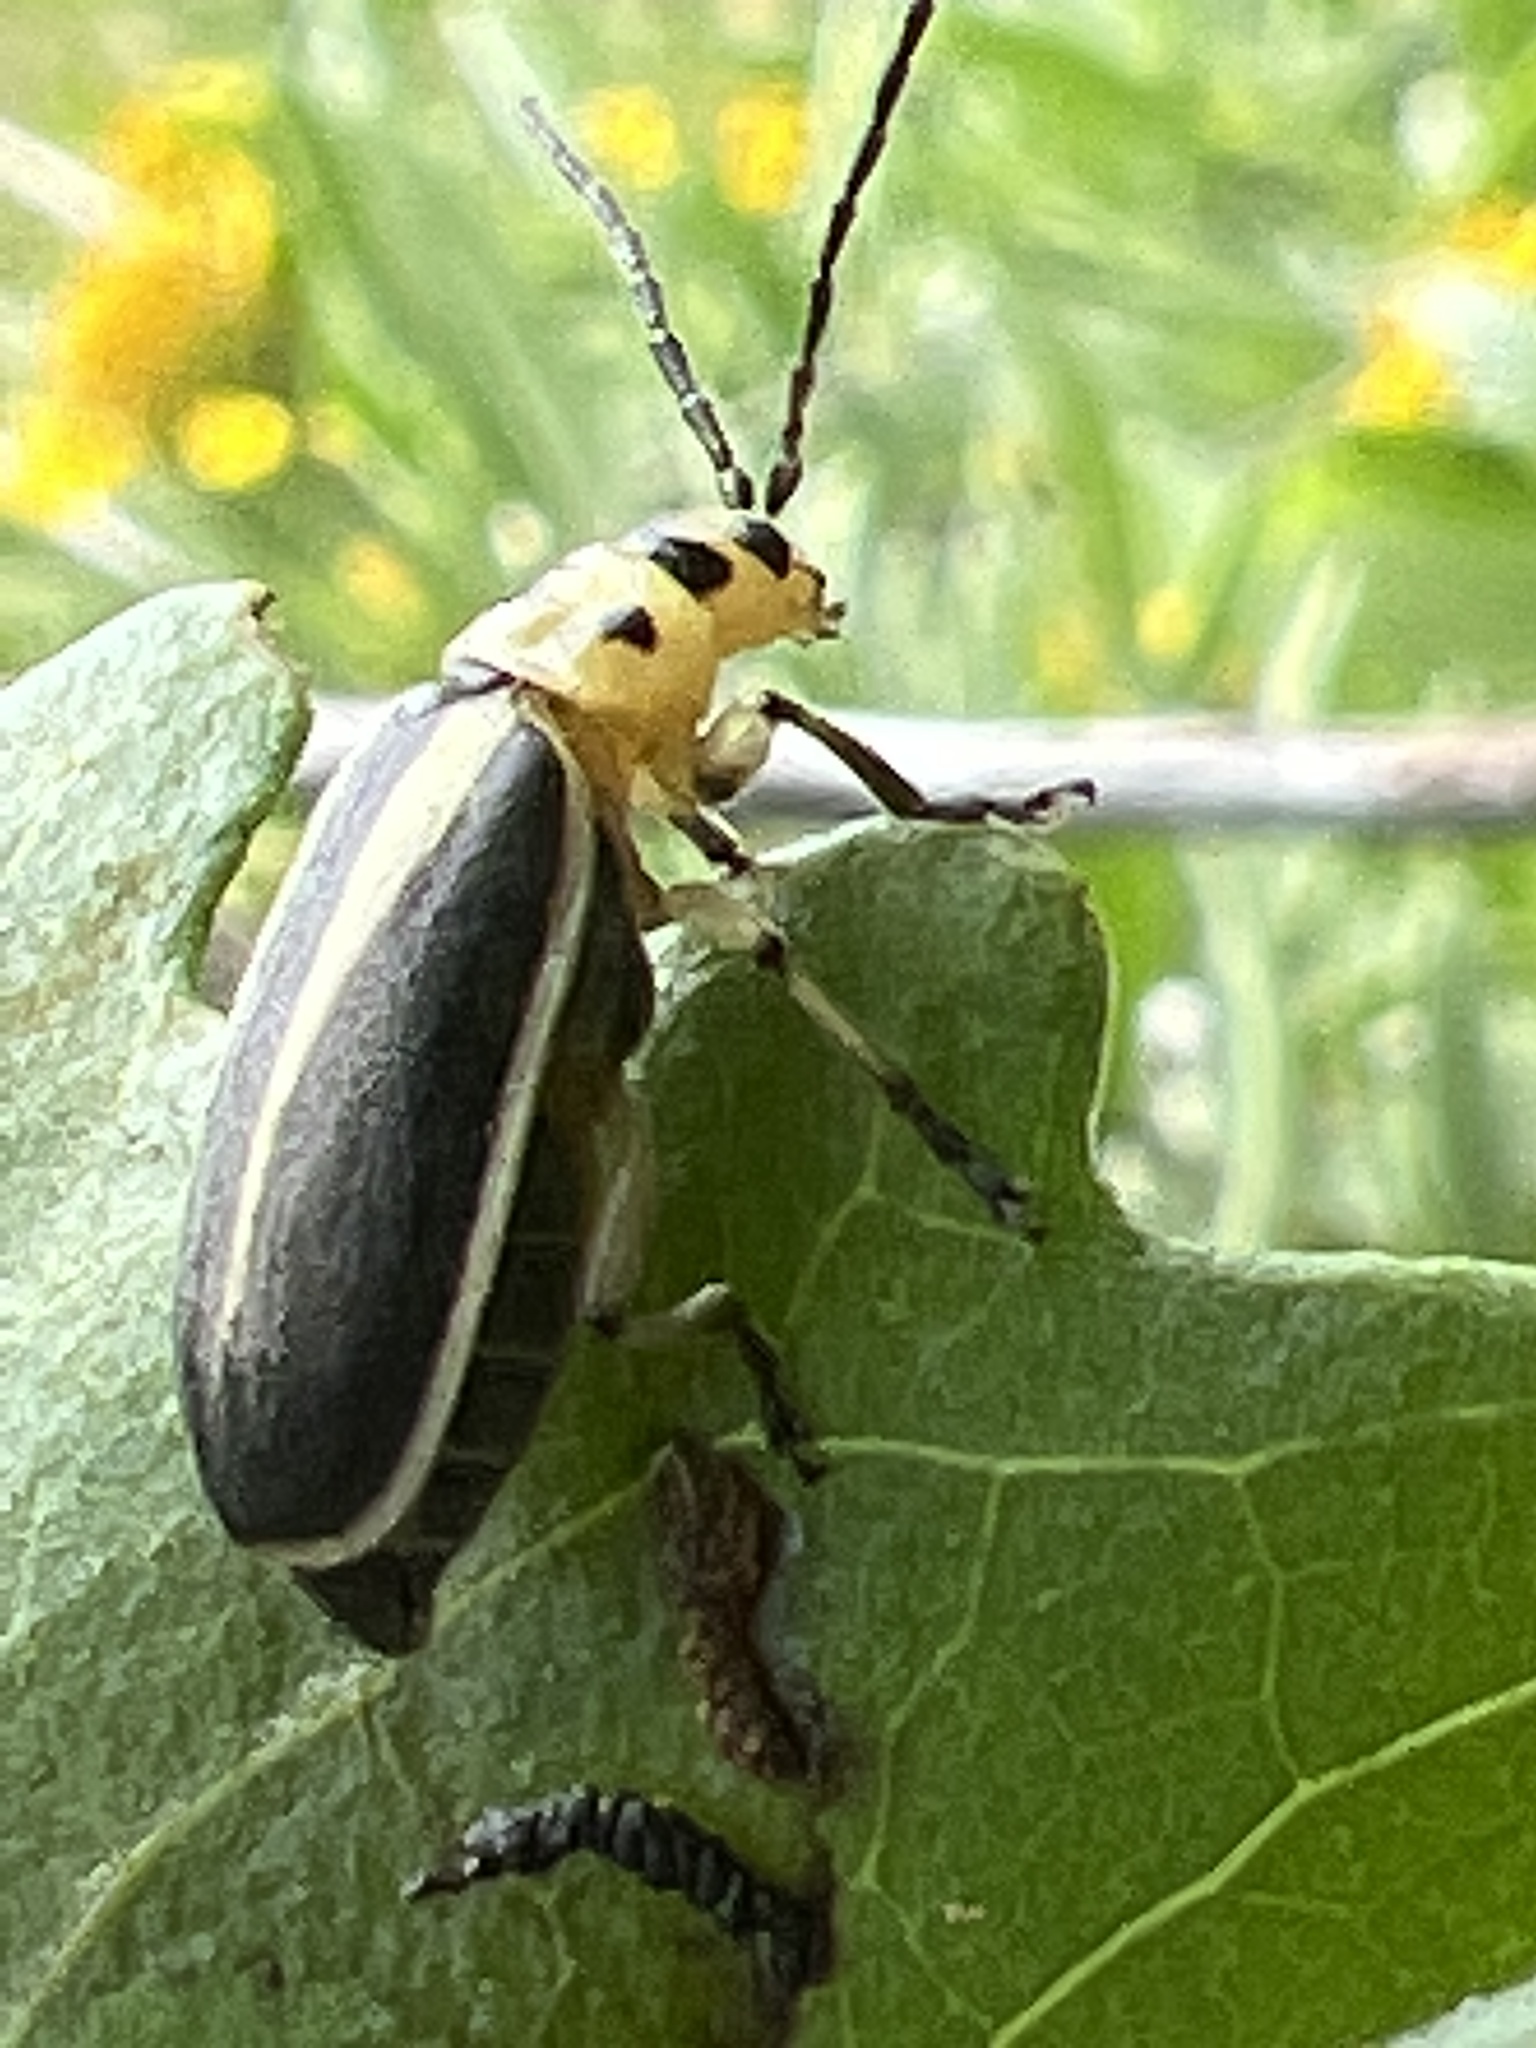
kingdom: Animalia
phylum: Arthropoda
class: Insecta
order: Coleoptera
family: Chrysomelidae
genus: Trirhabda
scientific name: Trirhabda bacharidis
